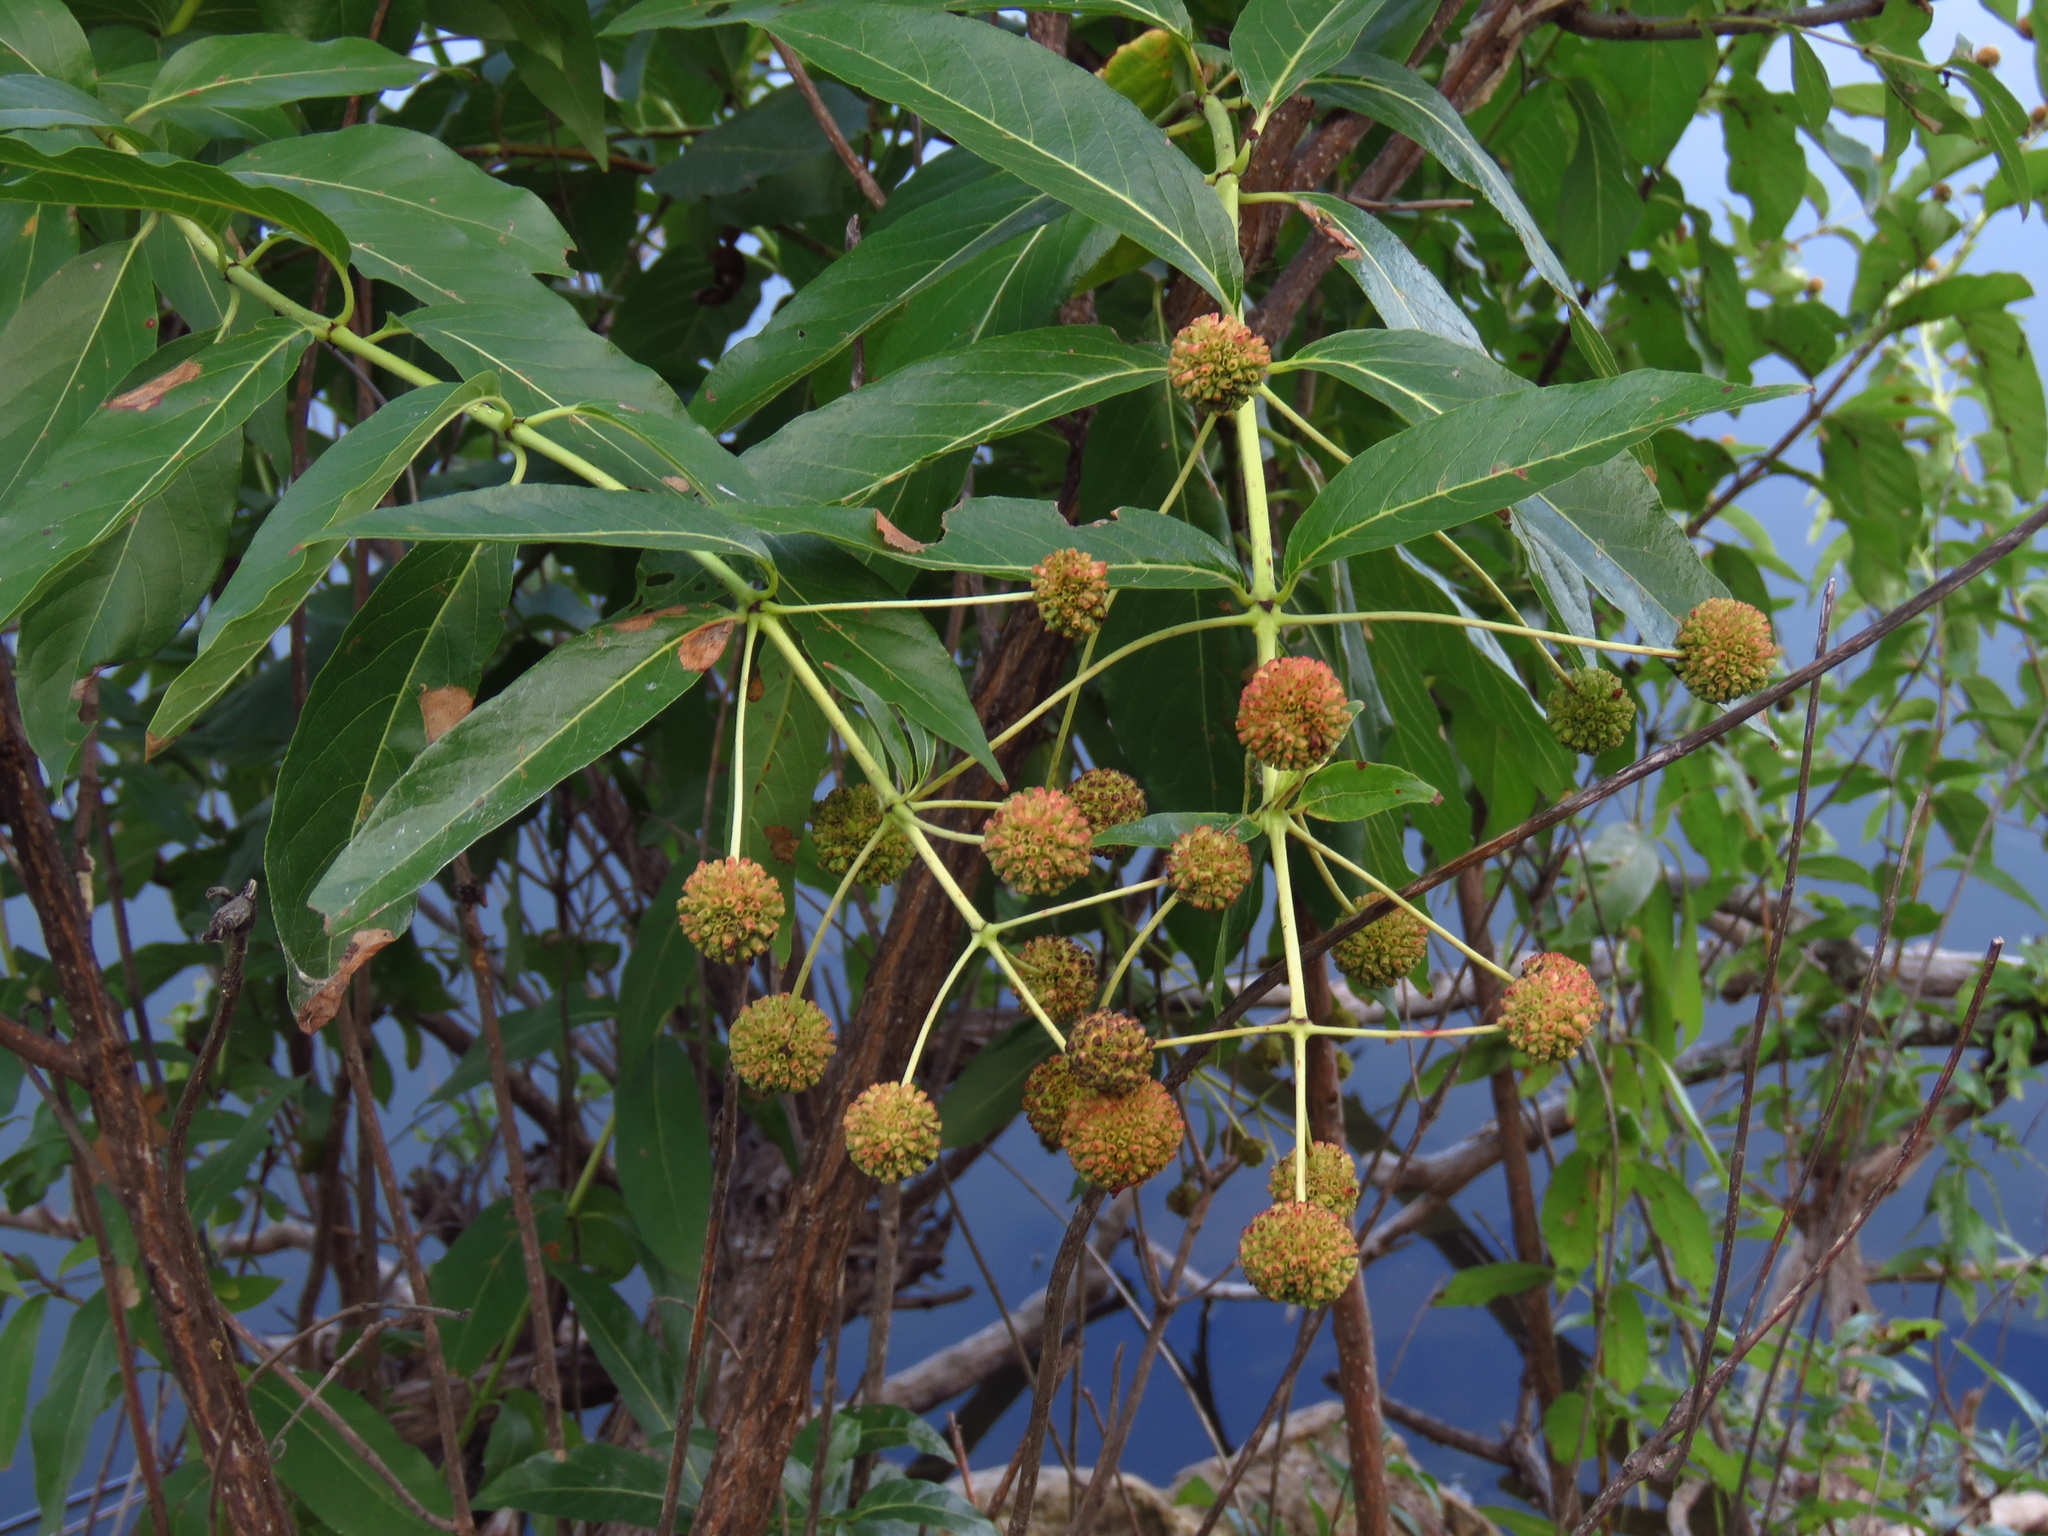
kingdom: Plantae
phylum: Tracheophyta
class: Magnoliopsida
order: Gentianales
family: Rubiaceae
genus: Cephalanthus
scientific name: Cephalanthus occidentalis
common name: Button-willow
